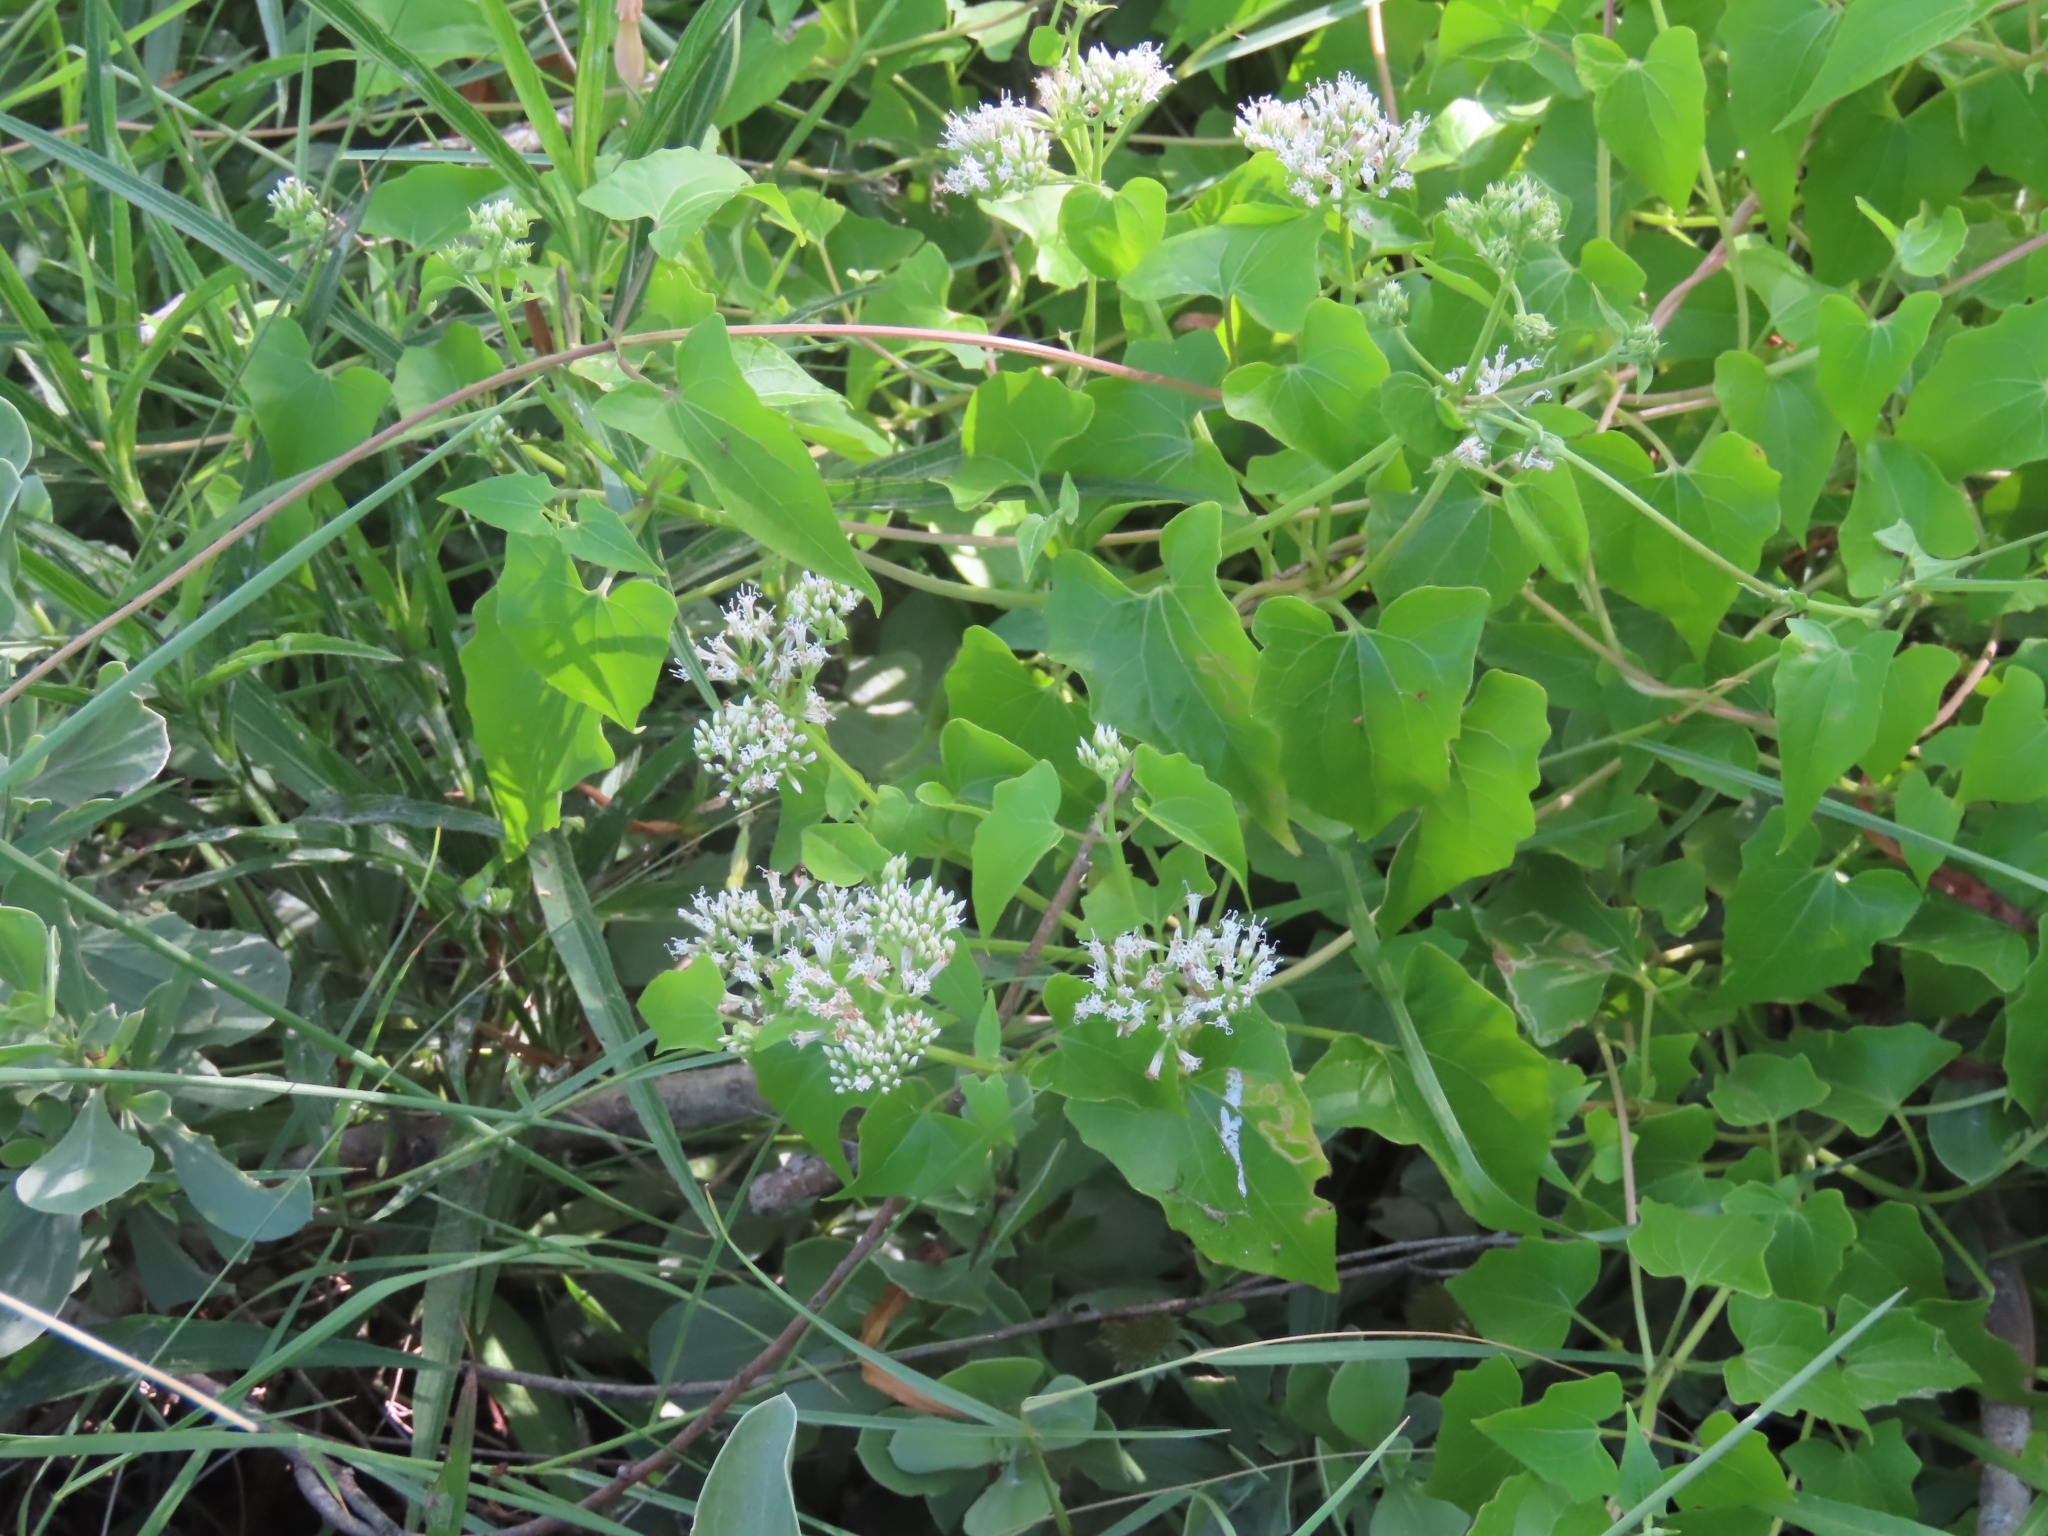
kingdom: Plantae
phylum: Tracheophyta
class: Magnoliopsida
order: Asterales
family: Asteraceae
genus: Mikania
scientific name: Mikania scandens
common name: Climbing hempvine
